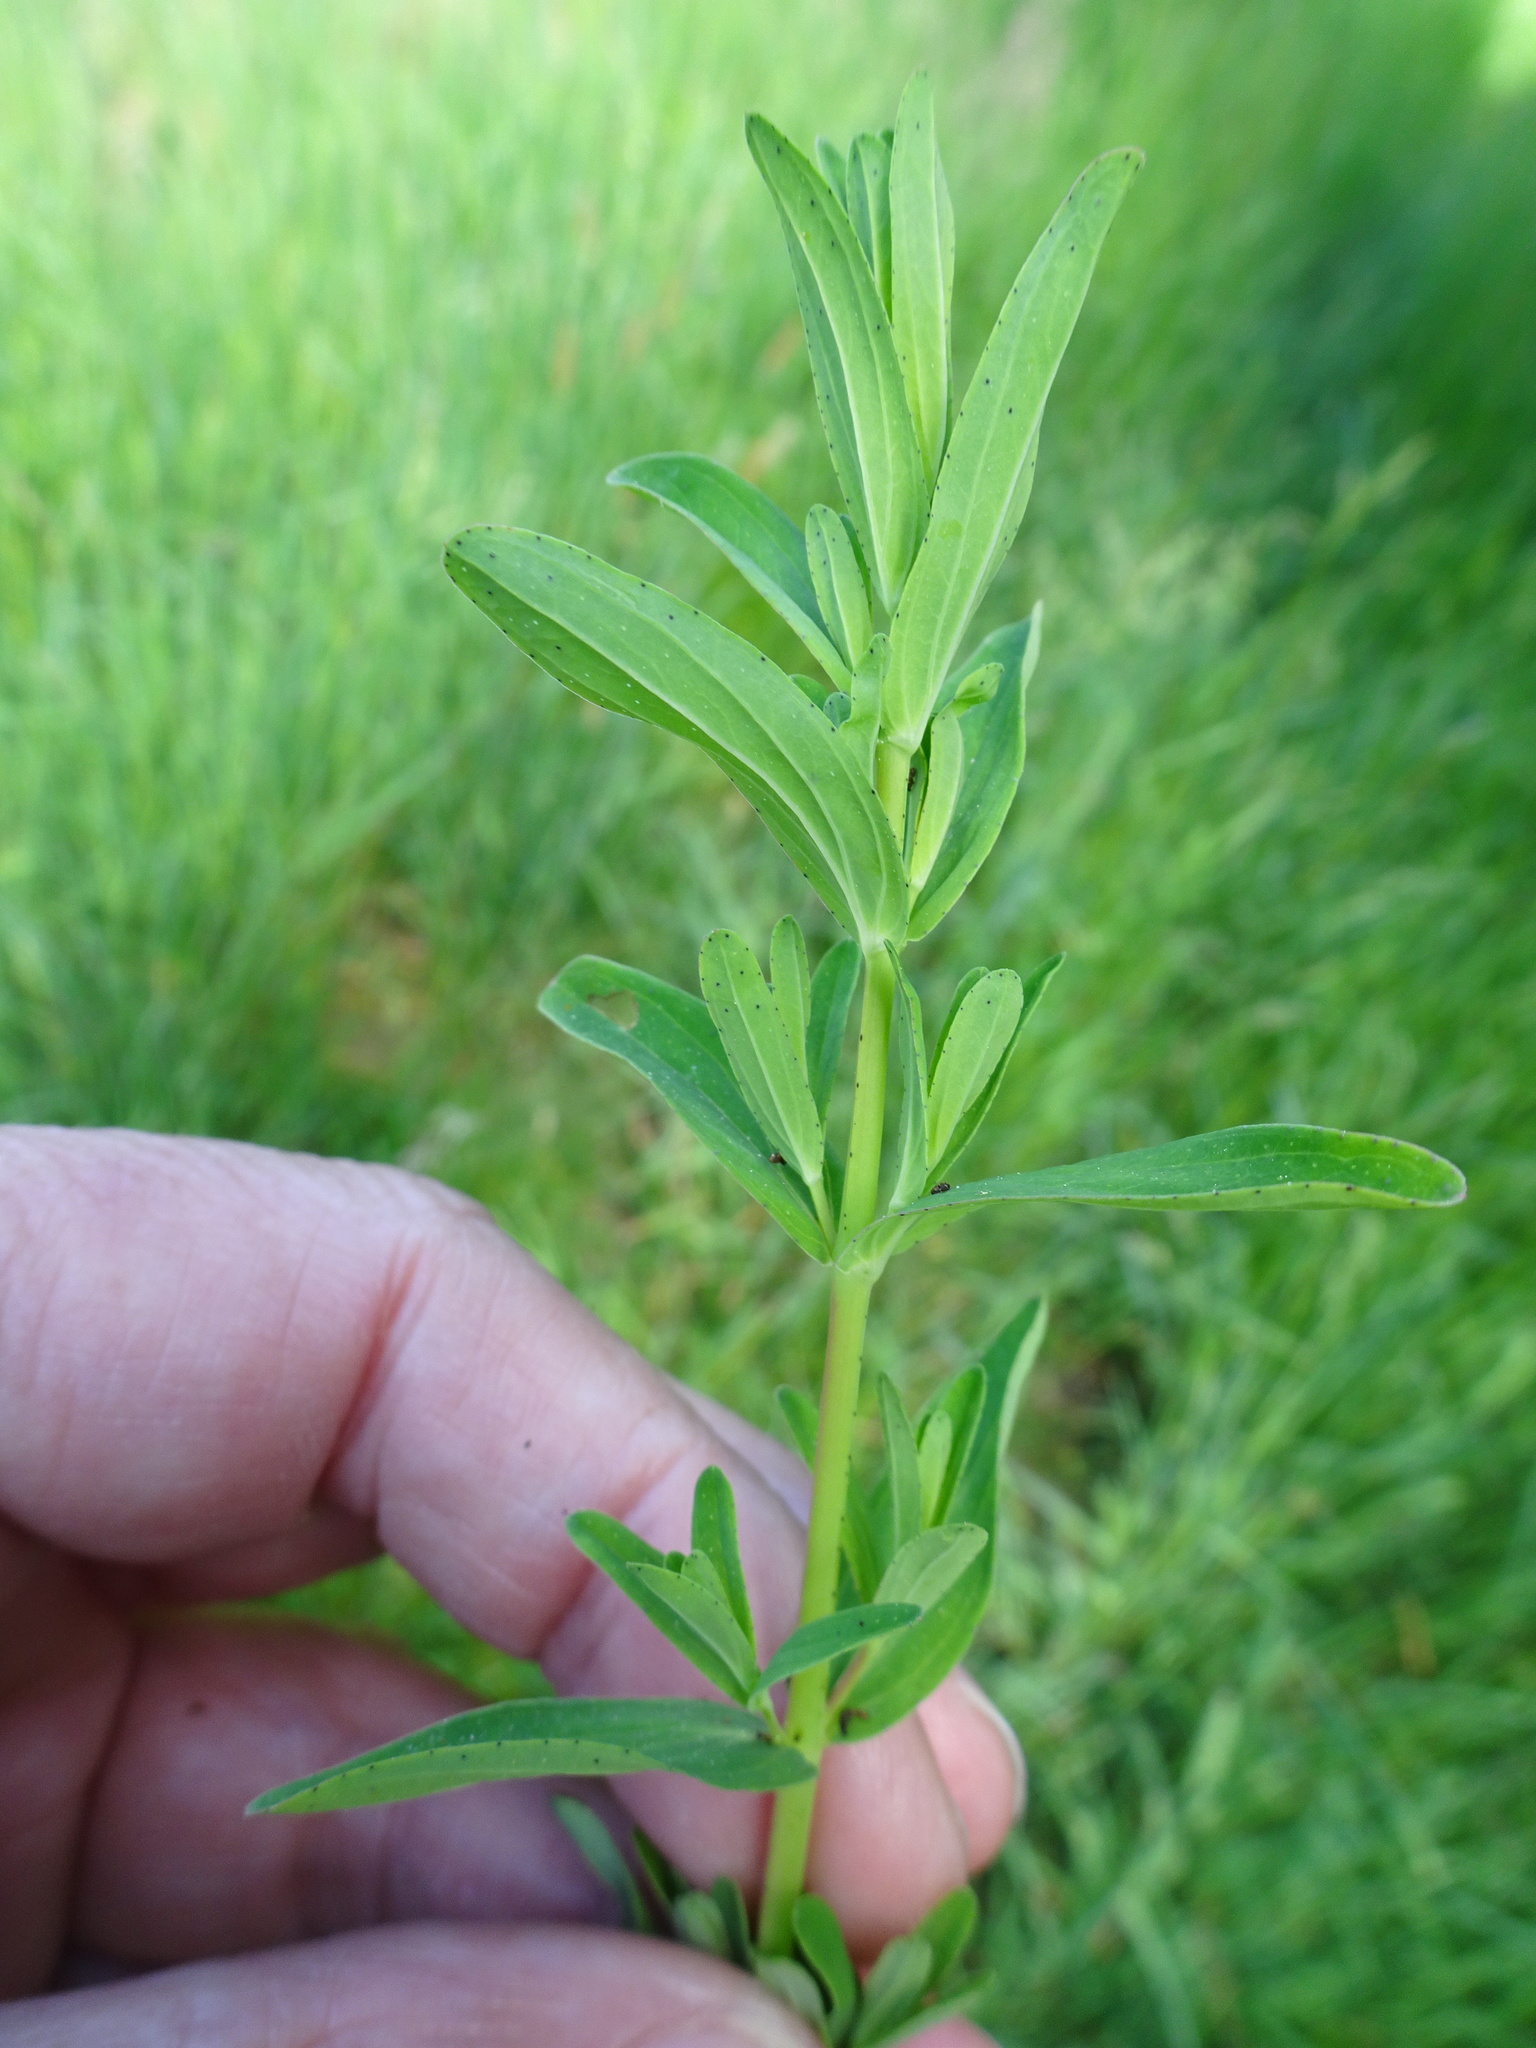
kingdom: Plantae
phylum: Tracheophyta
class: Magnoliopsida
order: Malpighiales
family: Hypericaceae
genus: Hypericum
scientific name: Hypericum perforatum
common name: Common st. johnswort
